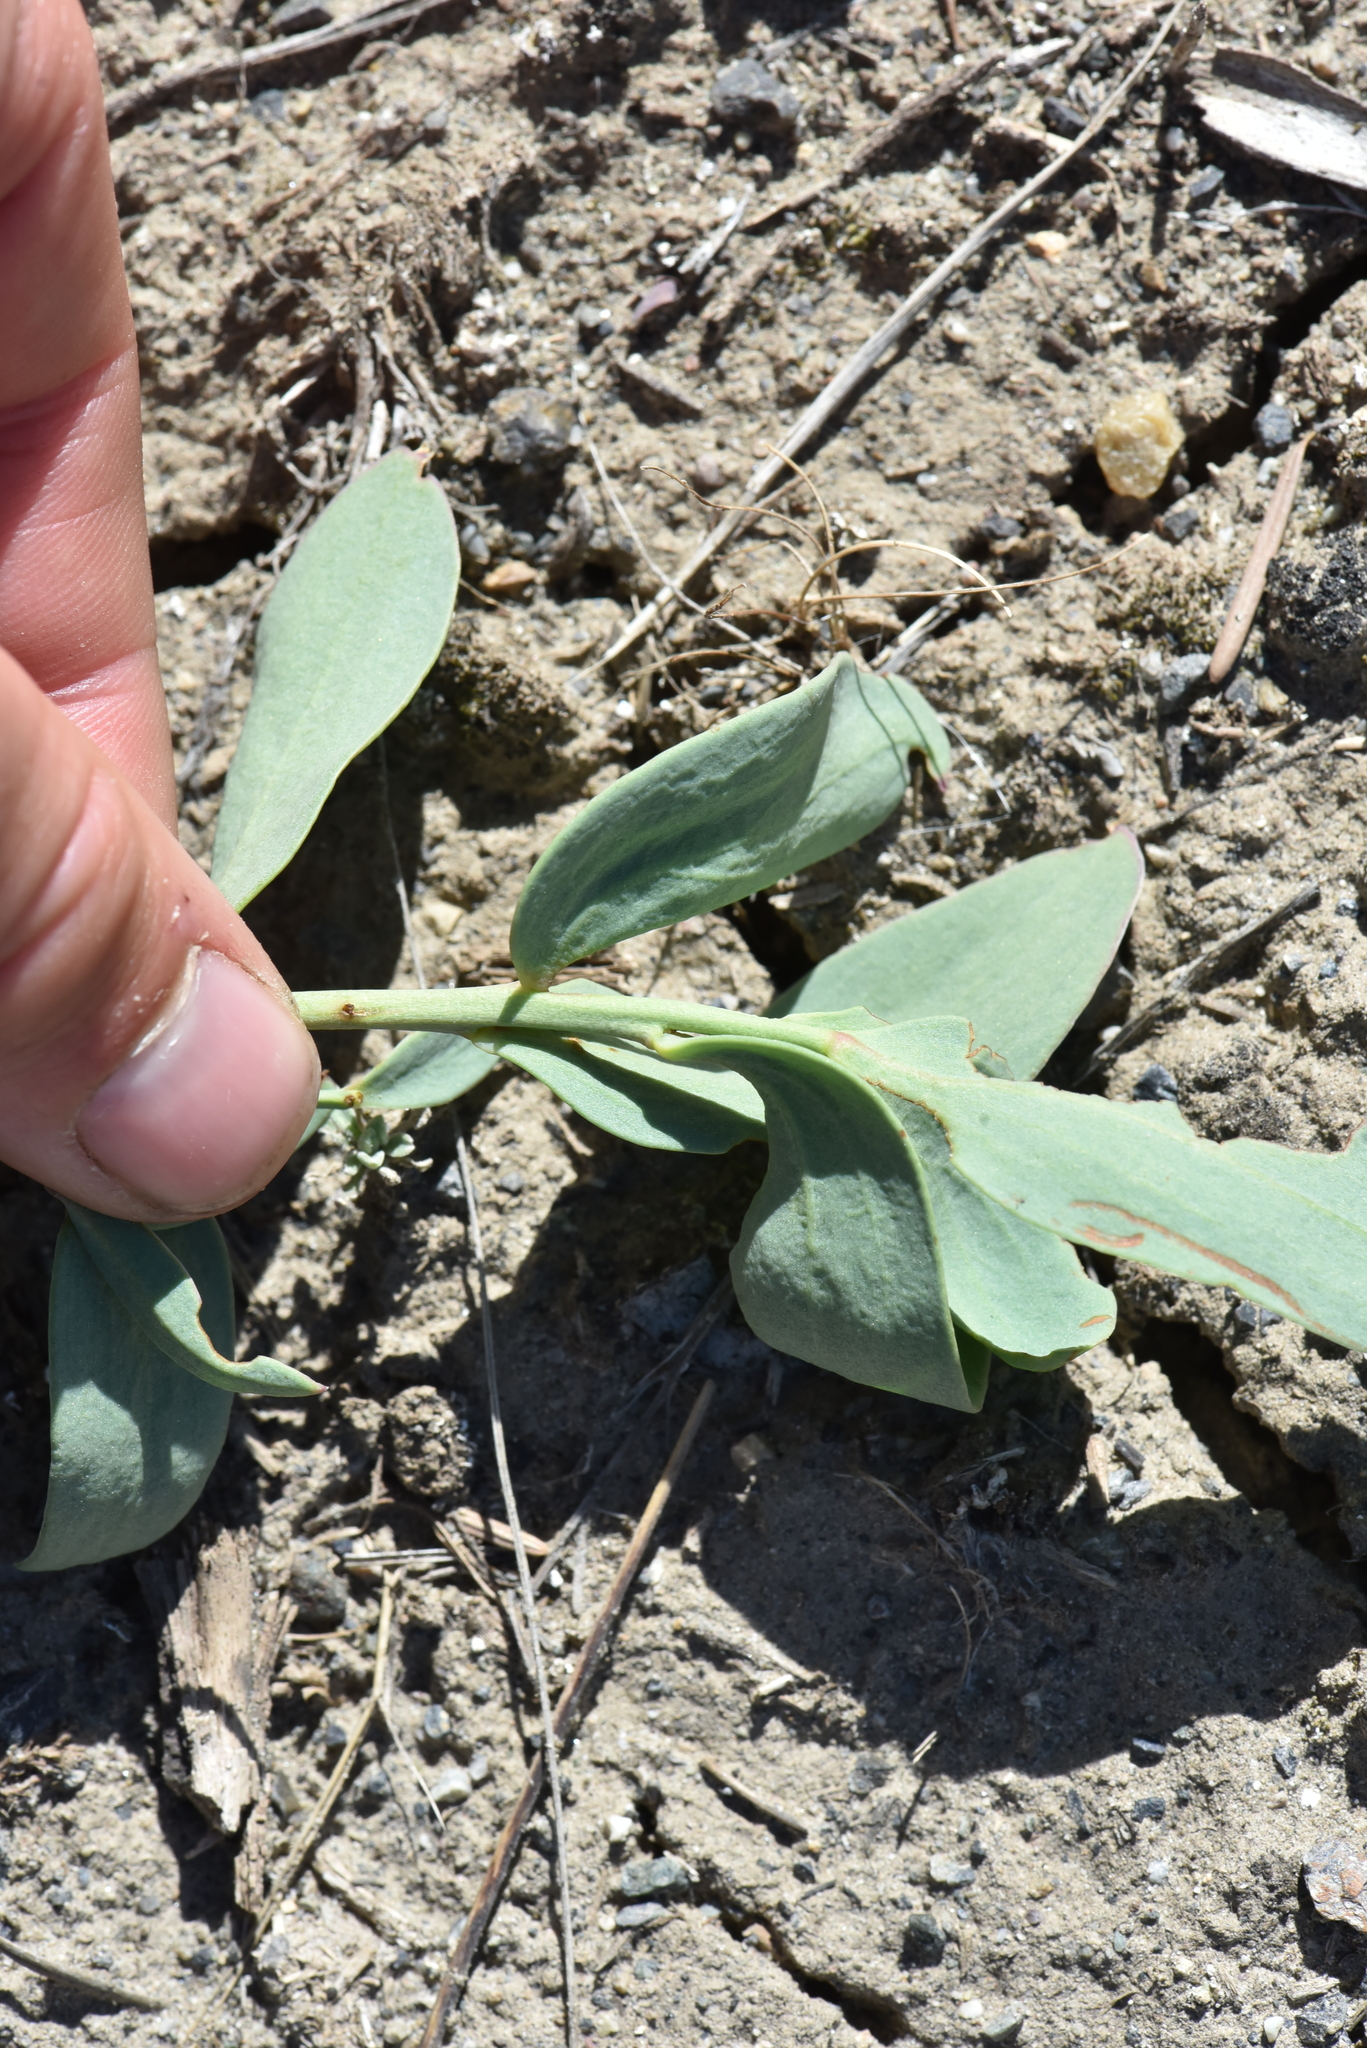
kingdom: Plantae
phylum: Tracheophyta
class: Magnoliopsida
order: Lamiales
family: Plantaginaceae
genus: Linaria
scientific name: Linaria dalmatica
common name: Dalmatian toadflax
